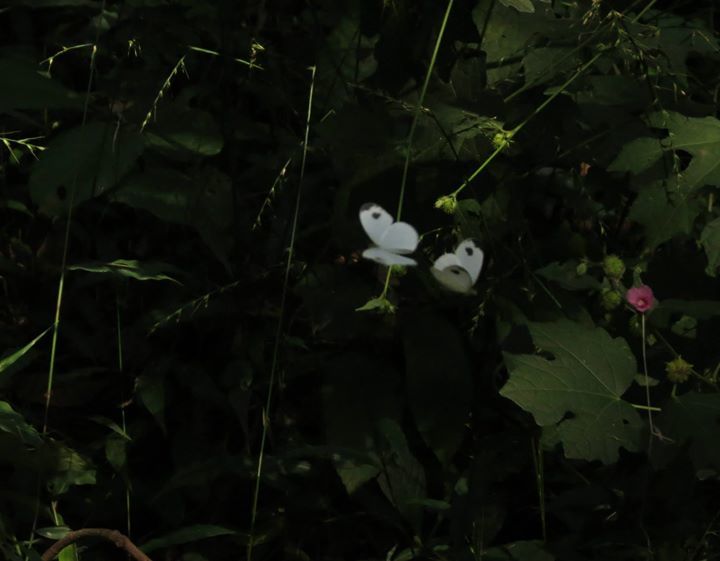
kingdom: Animalia
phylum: Arthropoda
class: Insecta
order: Lepidoptera
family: Pieridae
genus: Leptosia
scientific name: Leptosia nina
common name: Psyche
